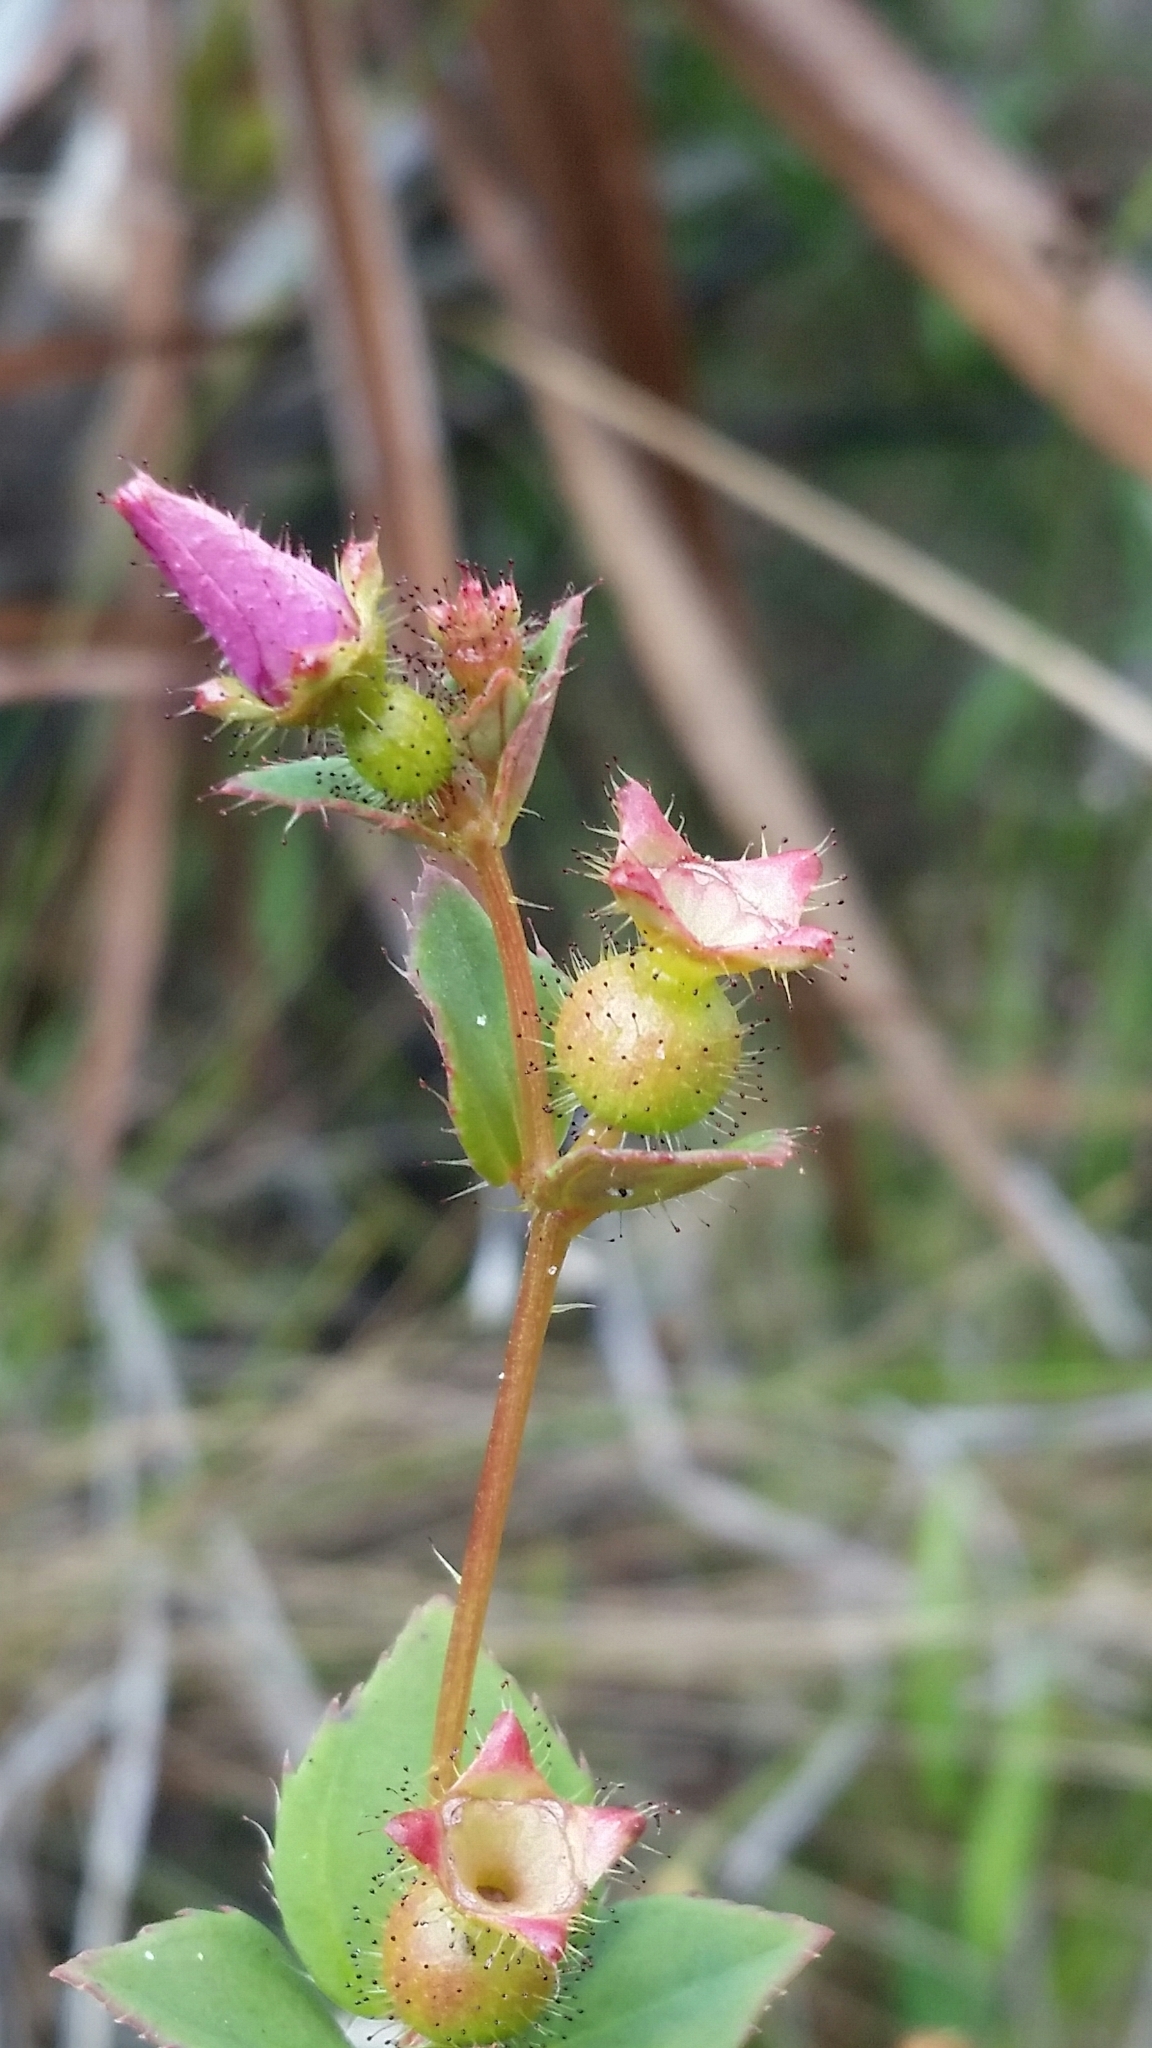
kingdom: Plantae
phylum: Tracheophyta
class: Magnoliopsida
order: Myrtales
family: Melastomataceae
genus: Rhexia
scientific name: Rhexia nuttallii
